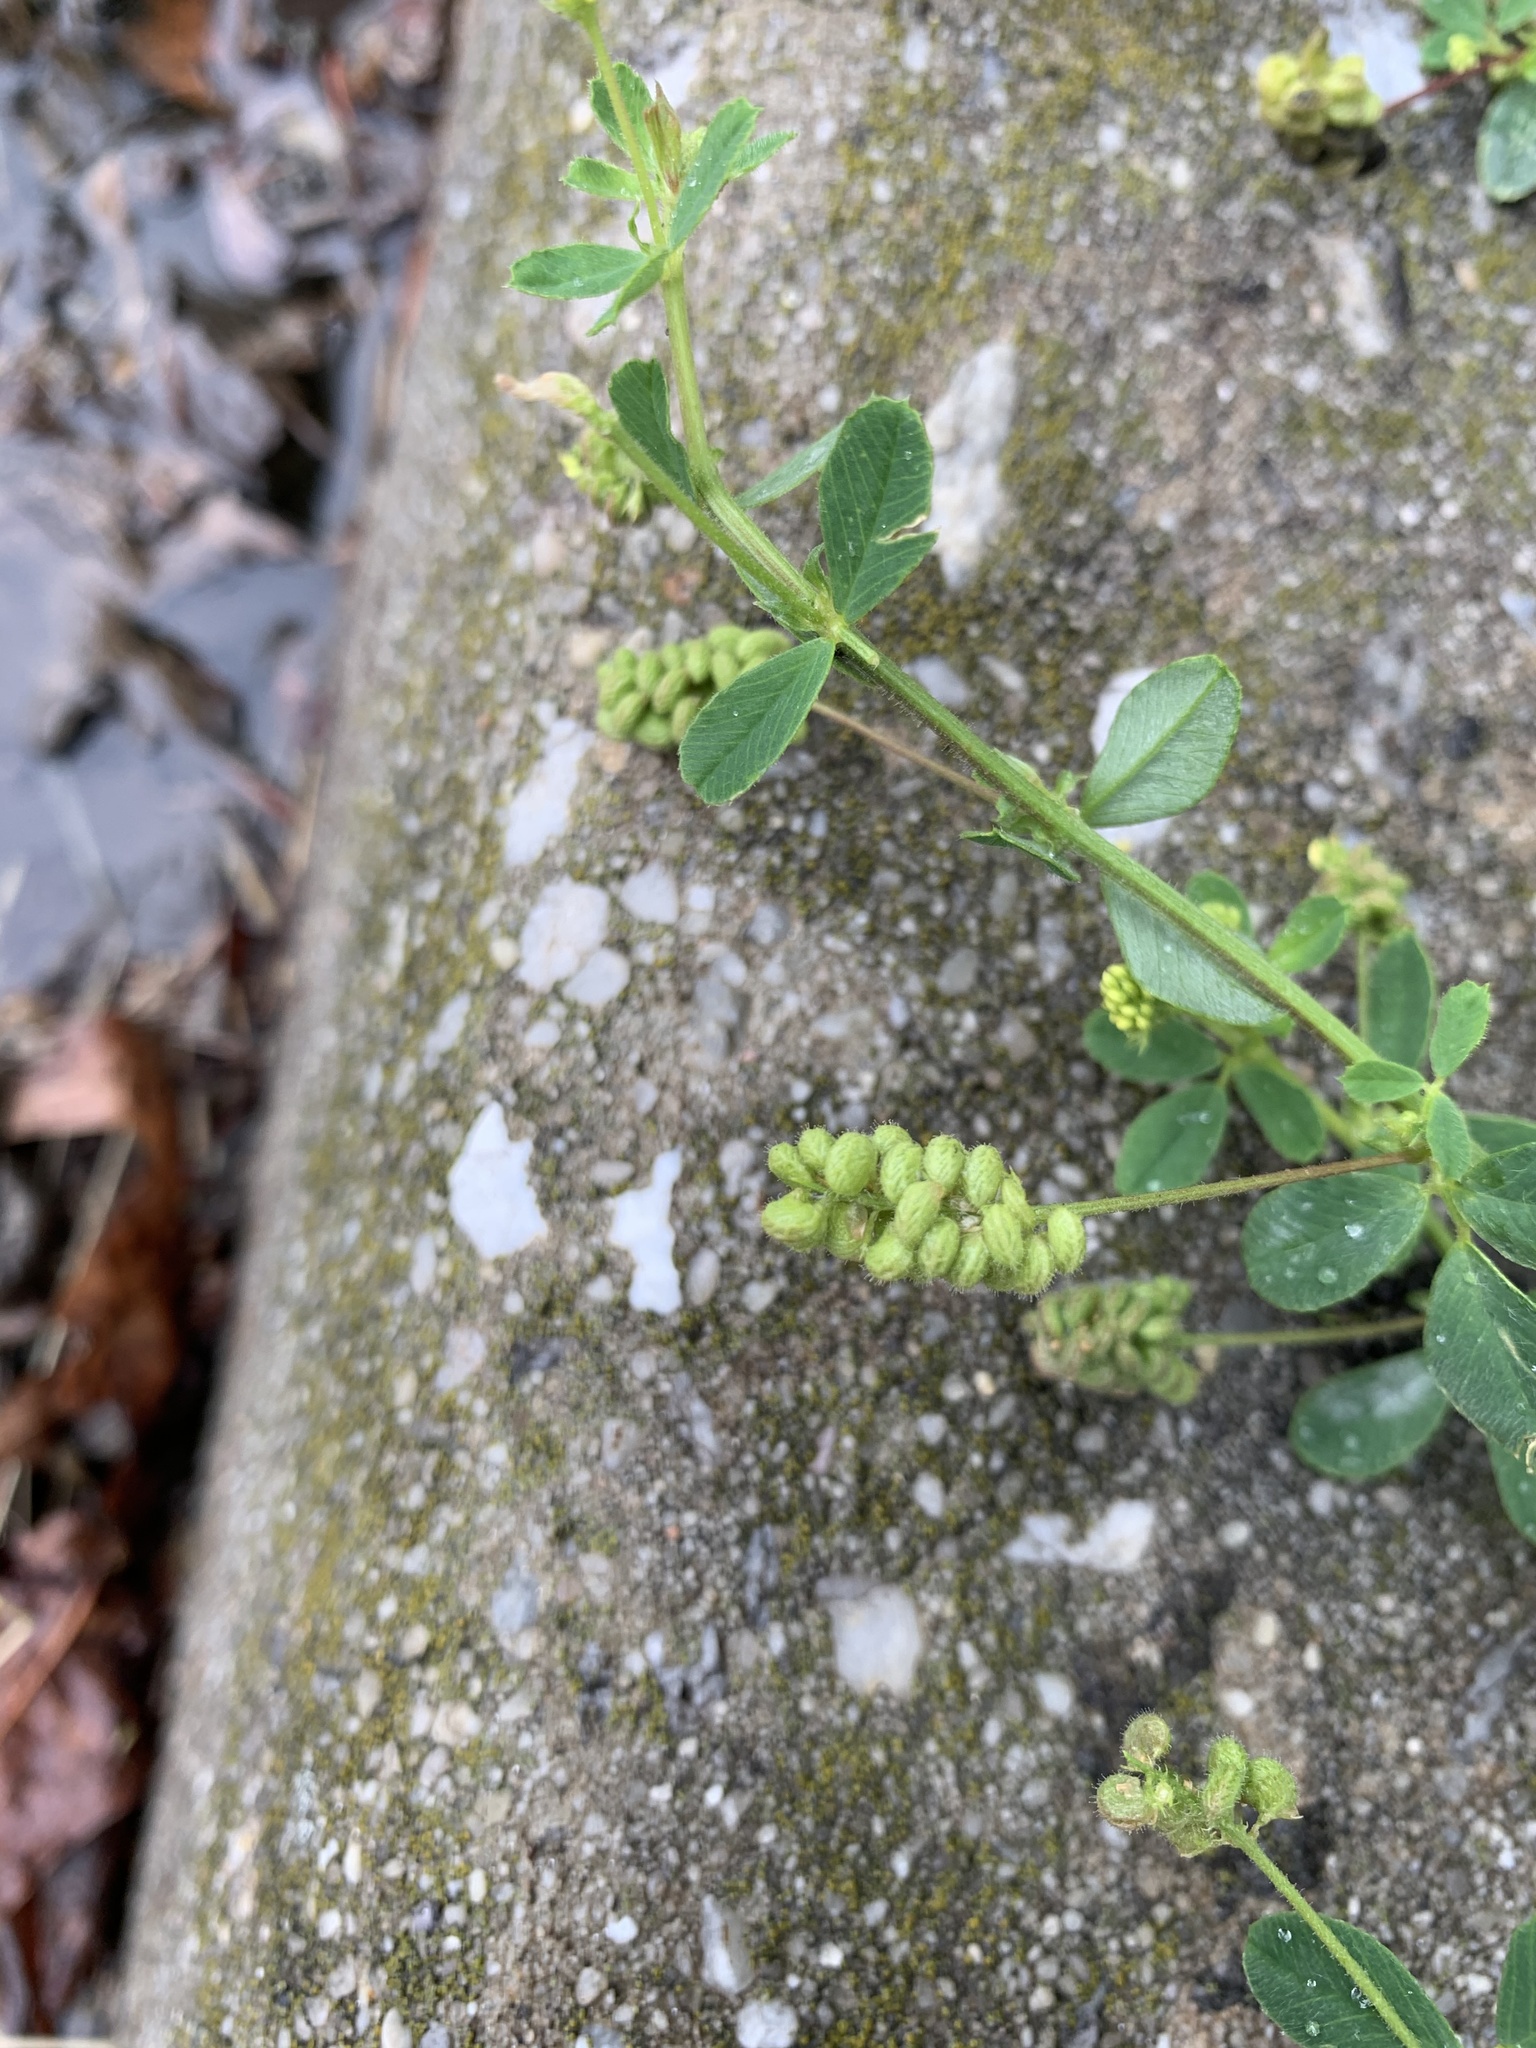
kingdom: Plantae
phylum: Tracheophyta
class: Magnoliopsida
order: Fabales
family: Fabaceae
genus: Medicago
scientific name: Medicago lupulina
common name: Black medick
